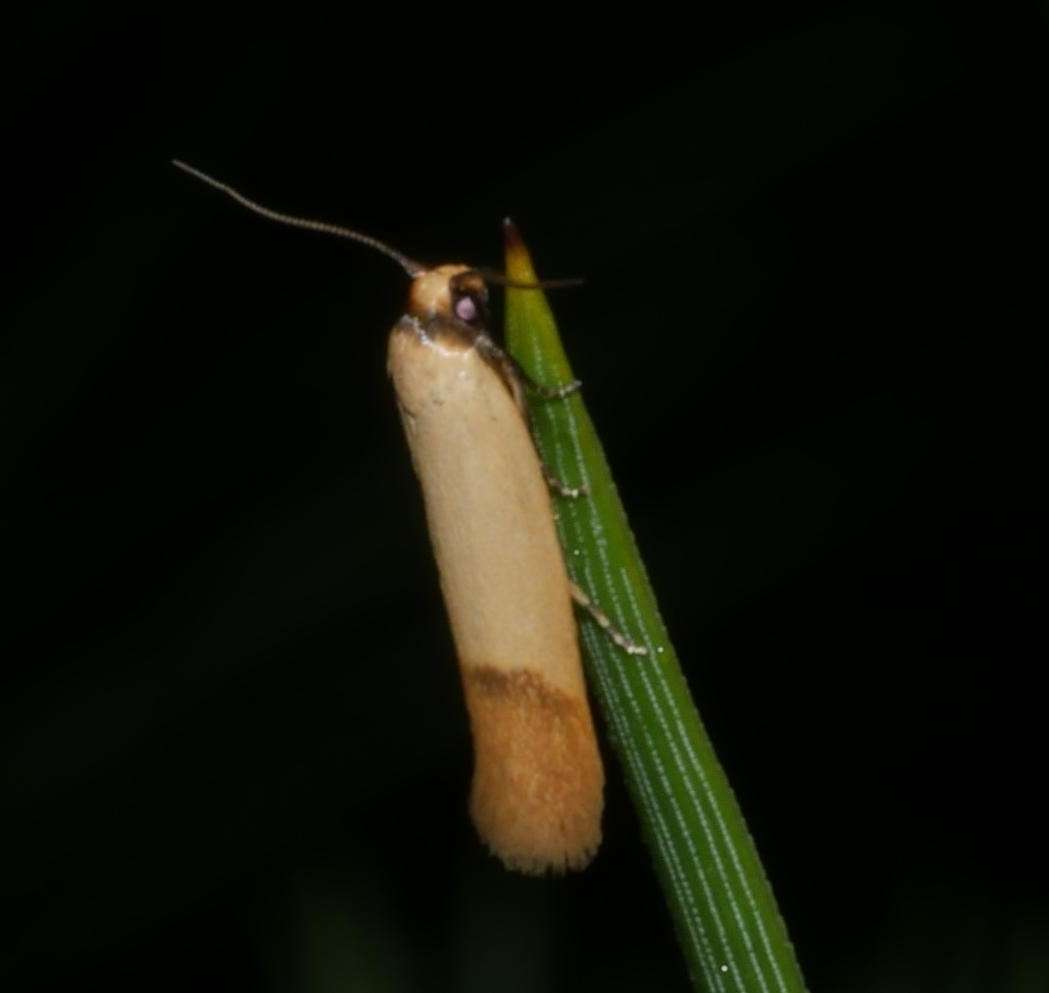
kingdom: Animalia
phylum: Arthropoda
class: Insecta
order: Lepidoptera
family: Oecophoridae
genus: Tachystola
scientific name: Tachystola stenoptera
